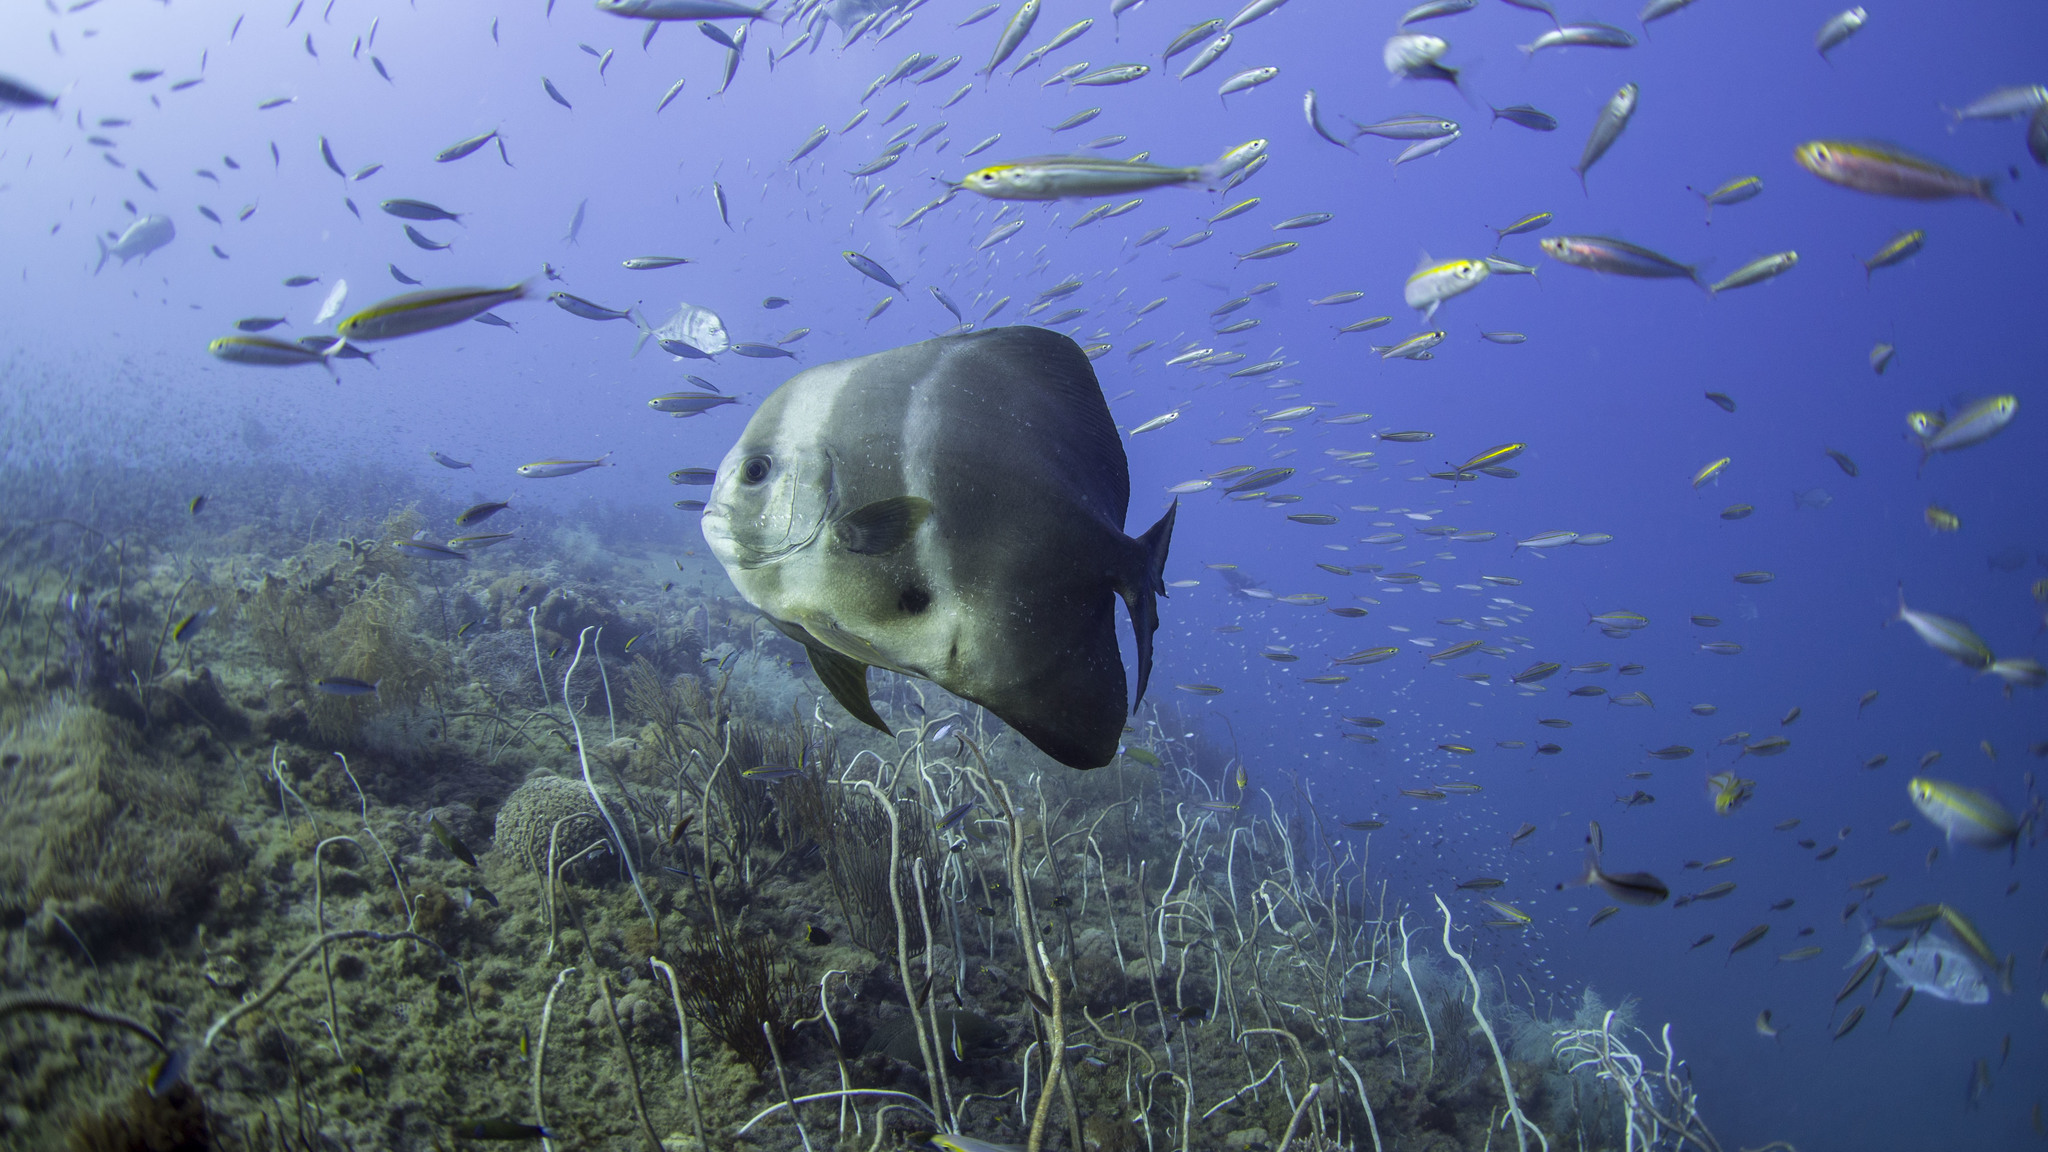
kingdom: Animalia
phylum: Chordata
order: Perciformes
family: Ephippidae
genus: Platax
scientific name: Platax teira
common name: Longfin baitfish
